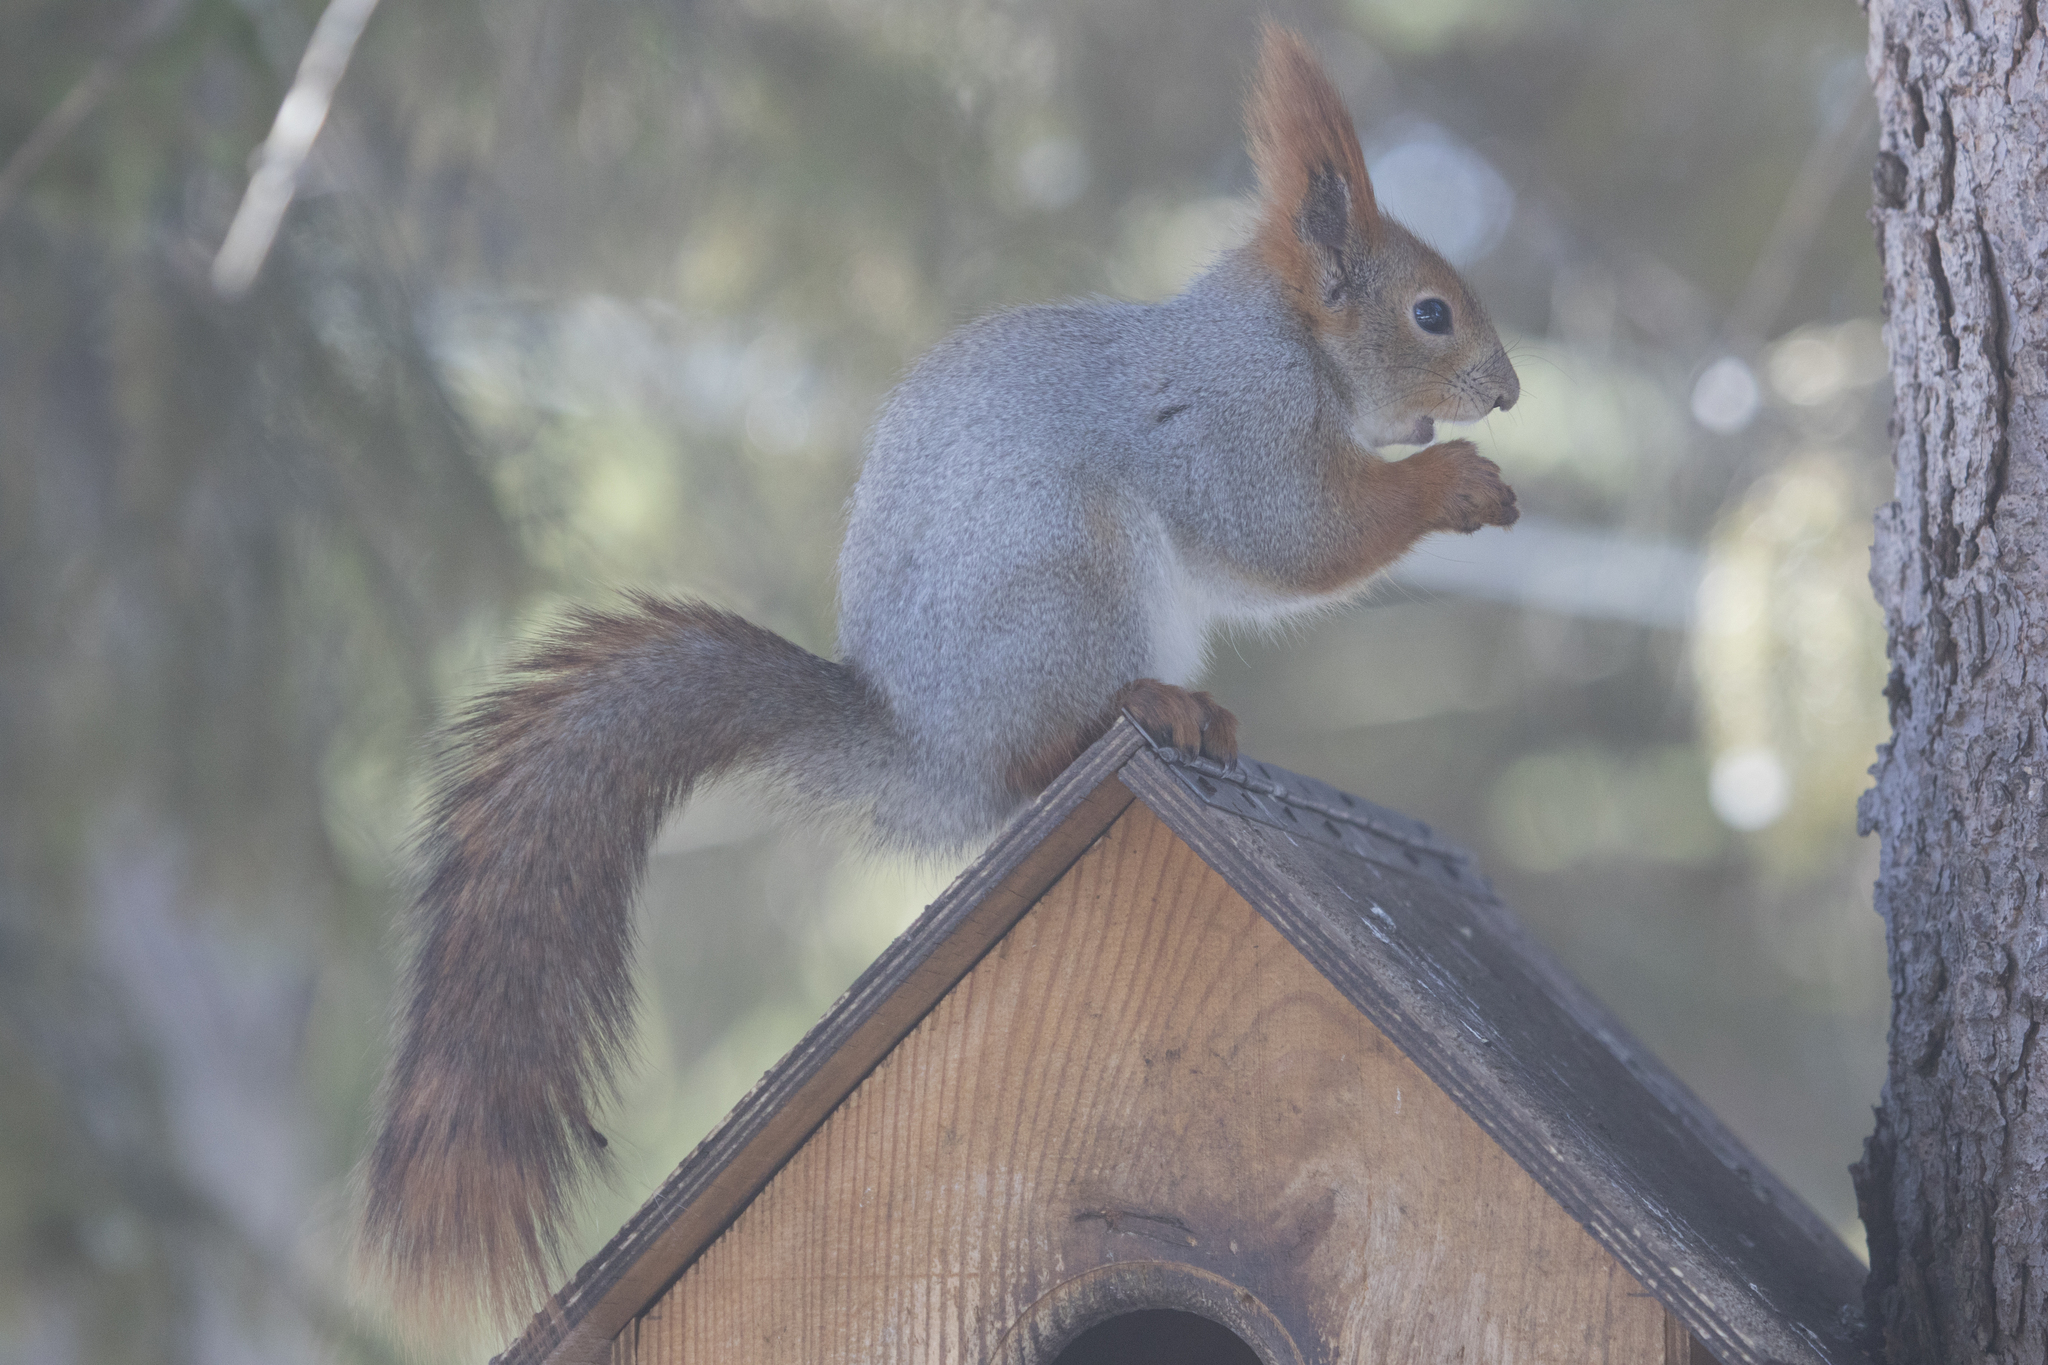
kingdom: Animalia
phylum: Chordata
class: Mammalia
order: Rodentia
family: Sciuridae
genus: Sciurus
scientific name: Sciurus vulgaris
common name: Eurasian red squirrel
